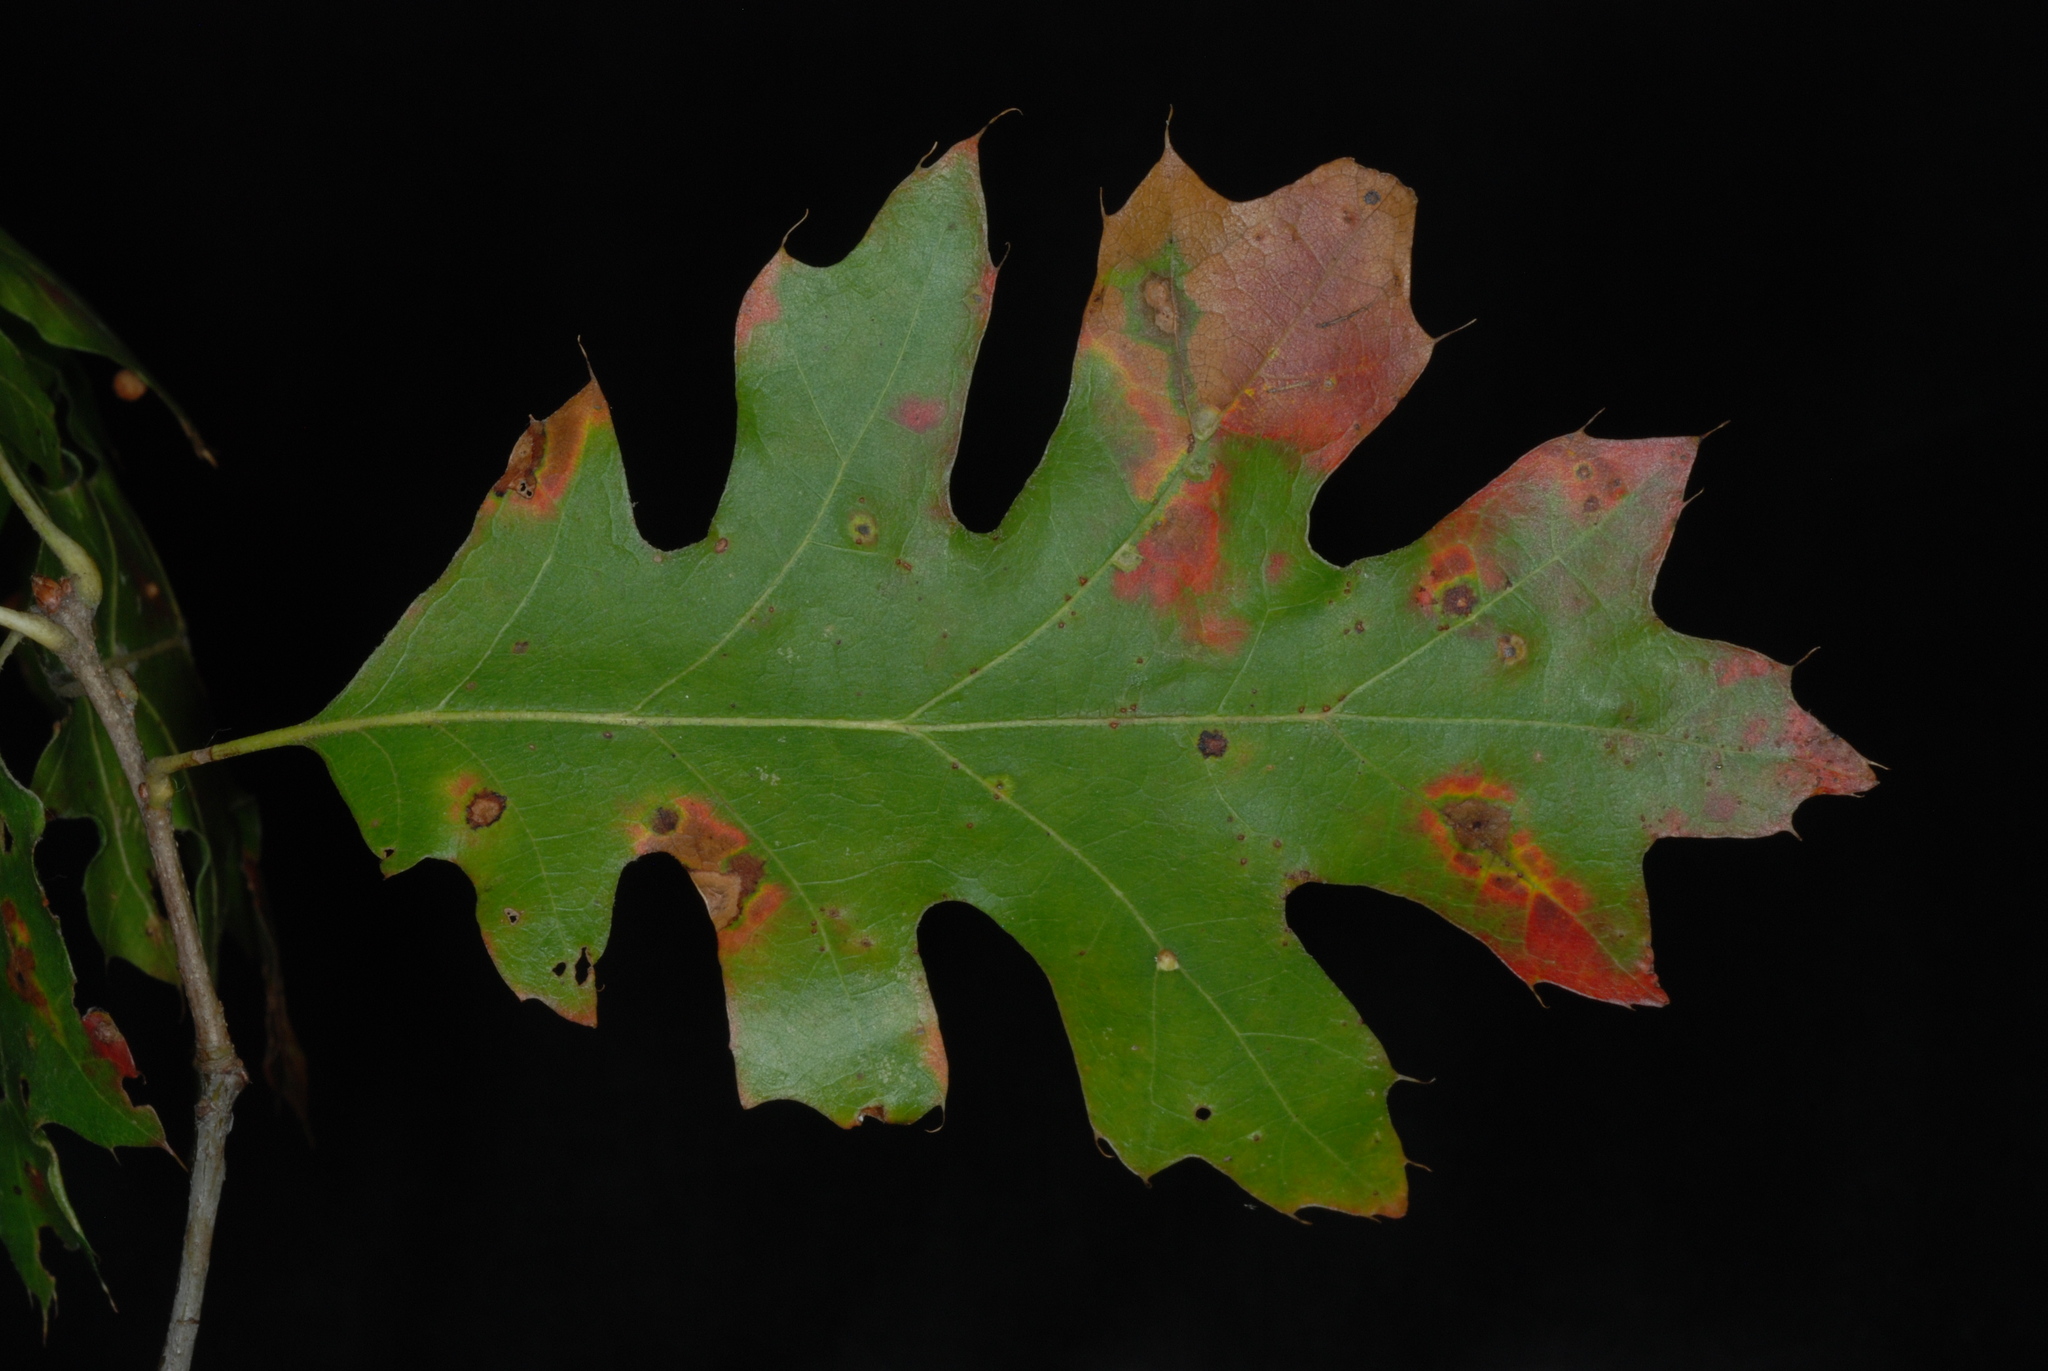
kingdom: Plantae
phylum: Tracheophyta
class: Magnoliopsida
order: Fagales
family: Fagaceae
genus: Quercus
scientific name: Quercus ellipsoidalis
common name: Hill's oak
